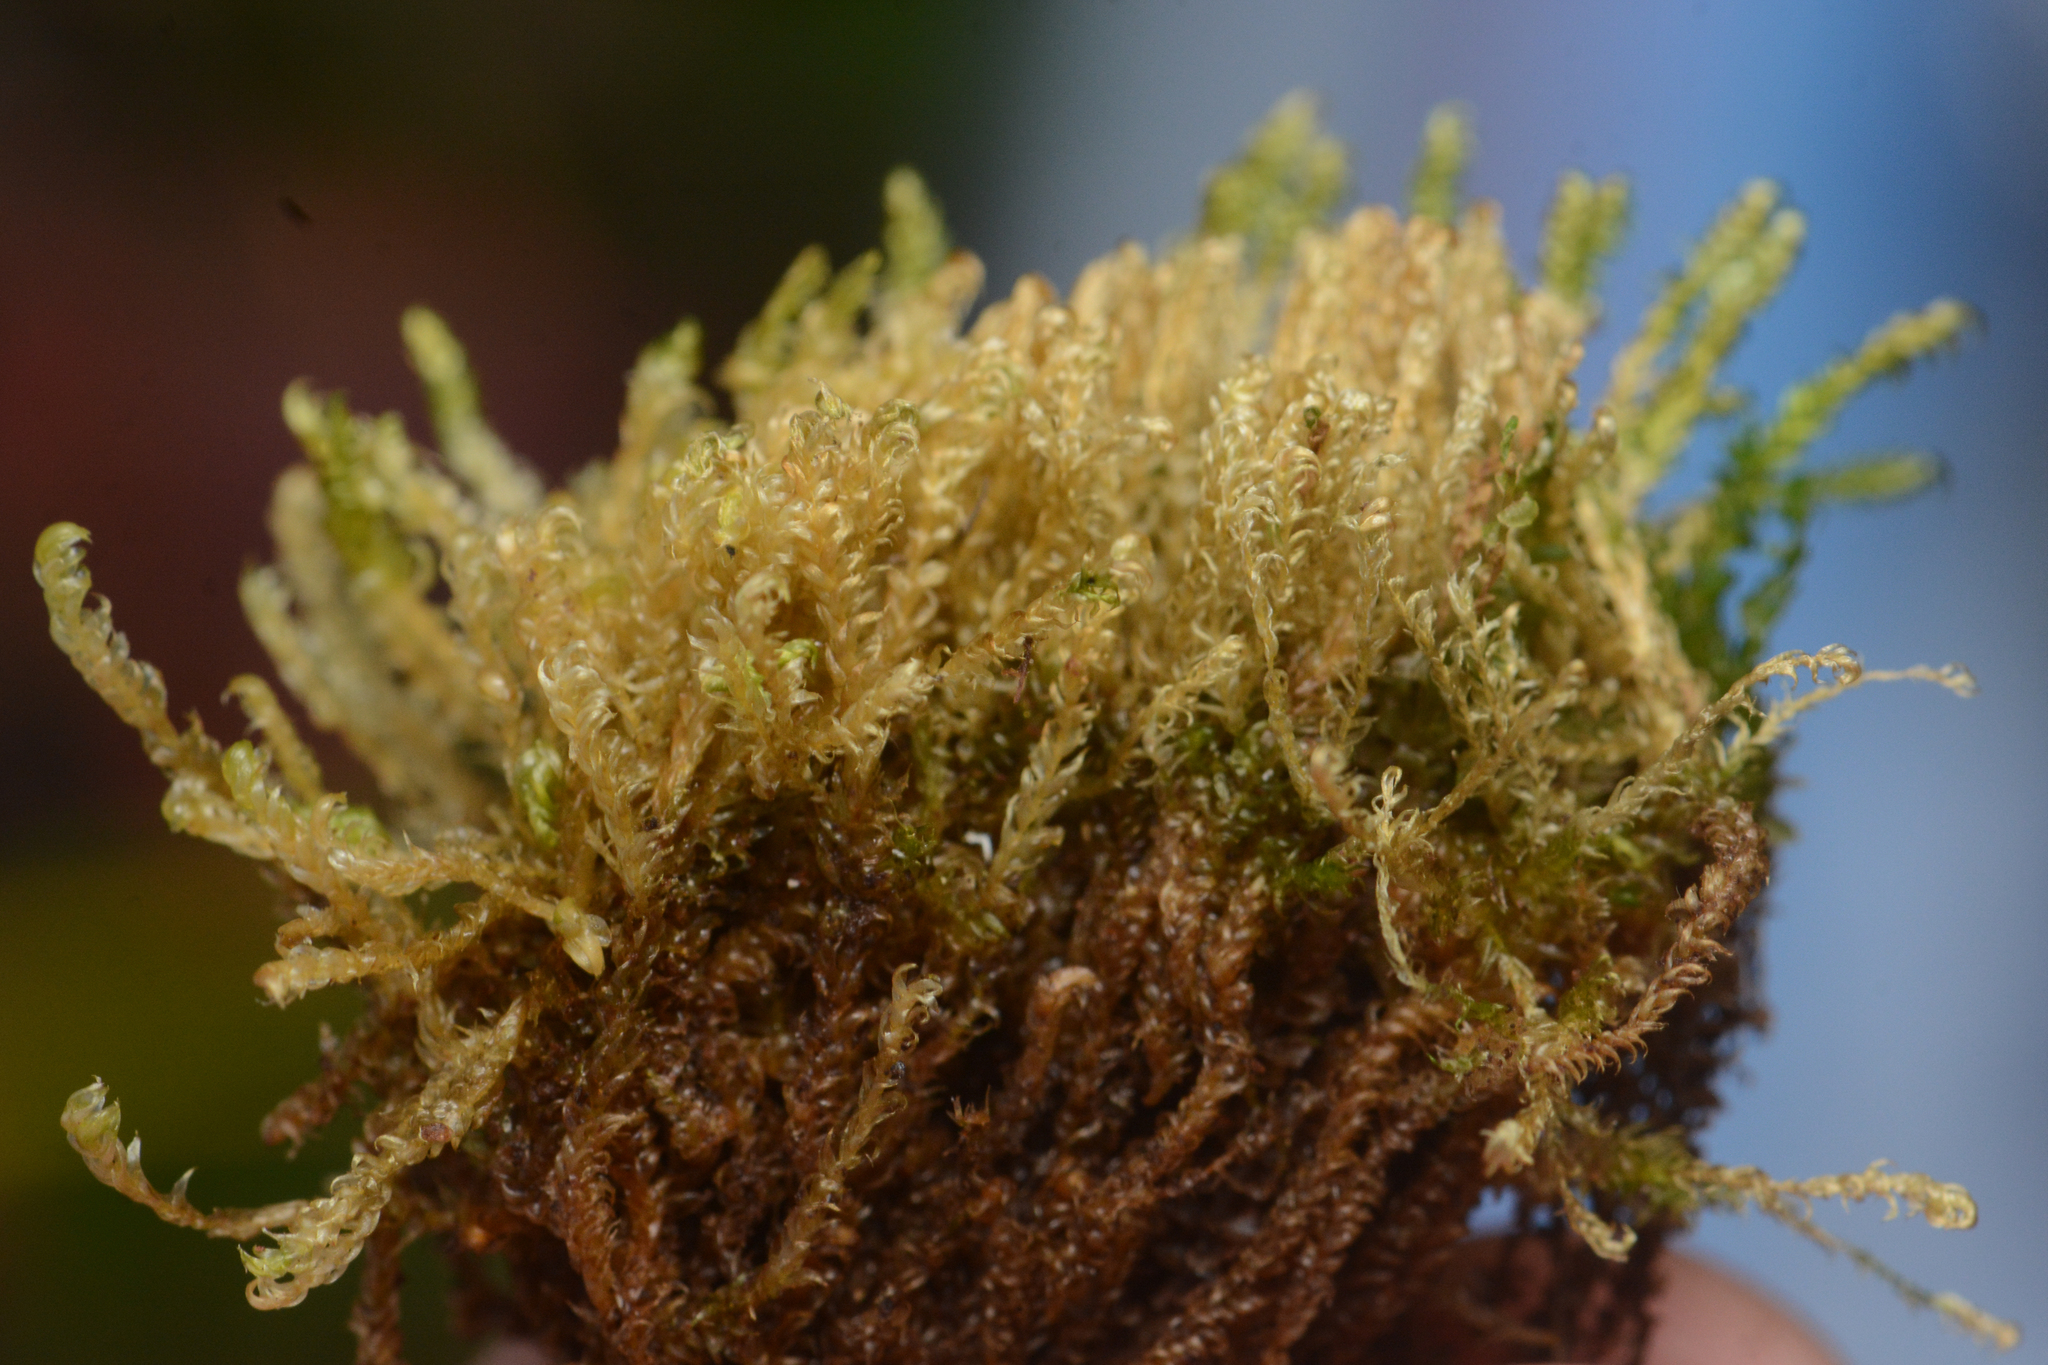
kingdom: Plantae
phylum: Bryophyta
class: Bryopsida
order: Hypnales
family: Scorpidiaceae
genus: Hygrohypnella
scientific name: Hygrohypnella ochracea
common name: Hygrohypnum moss
